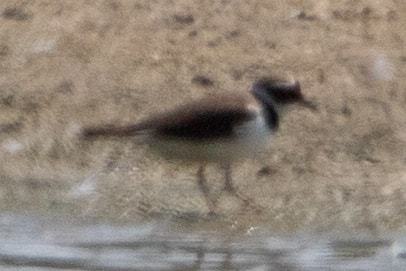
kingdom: Animalia
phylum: Chordata
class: Aves
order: Charadriiformes
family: Charadriidae
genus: Charadrius
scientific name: Charadrius dubius
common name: Little ringed plover
